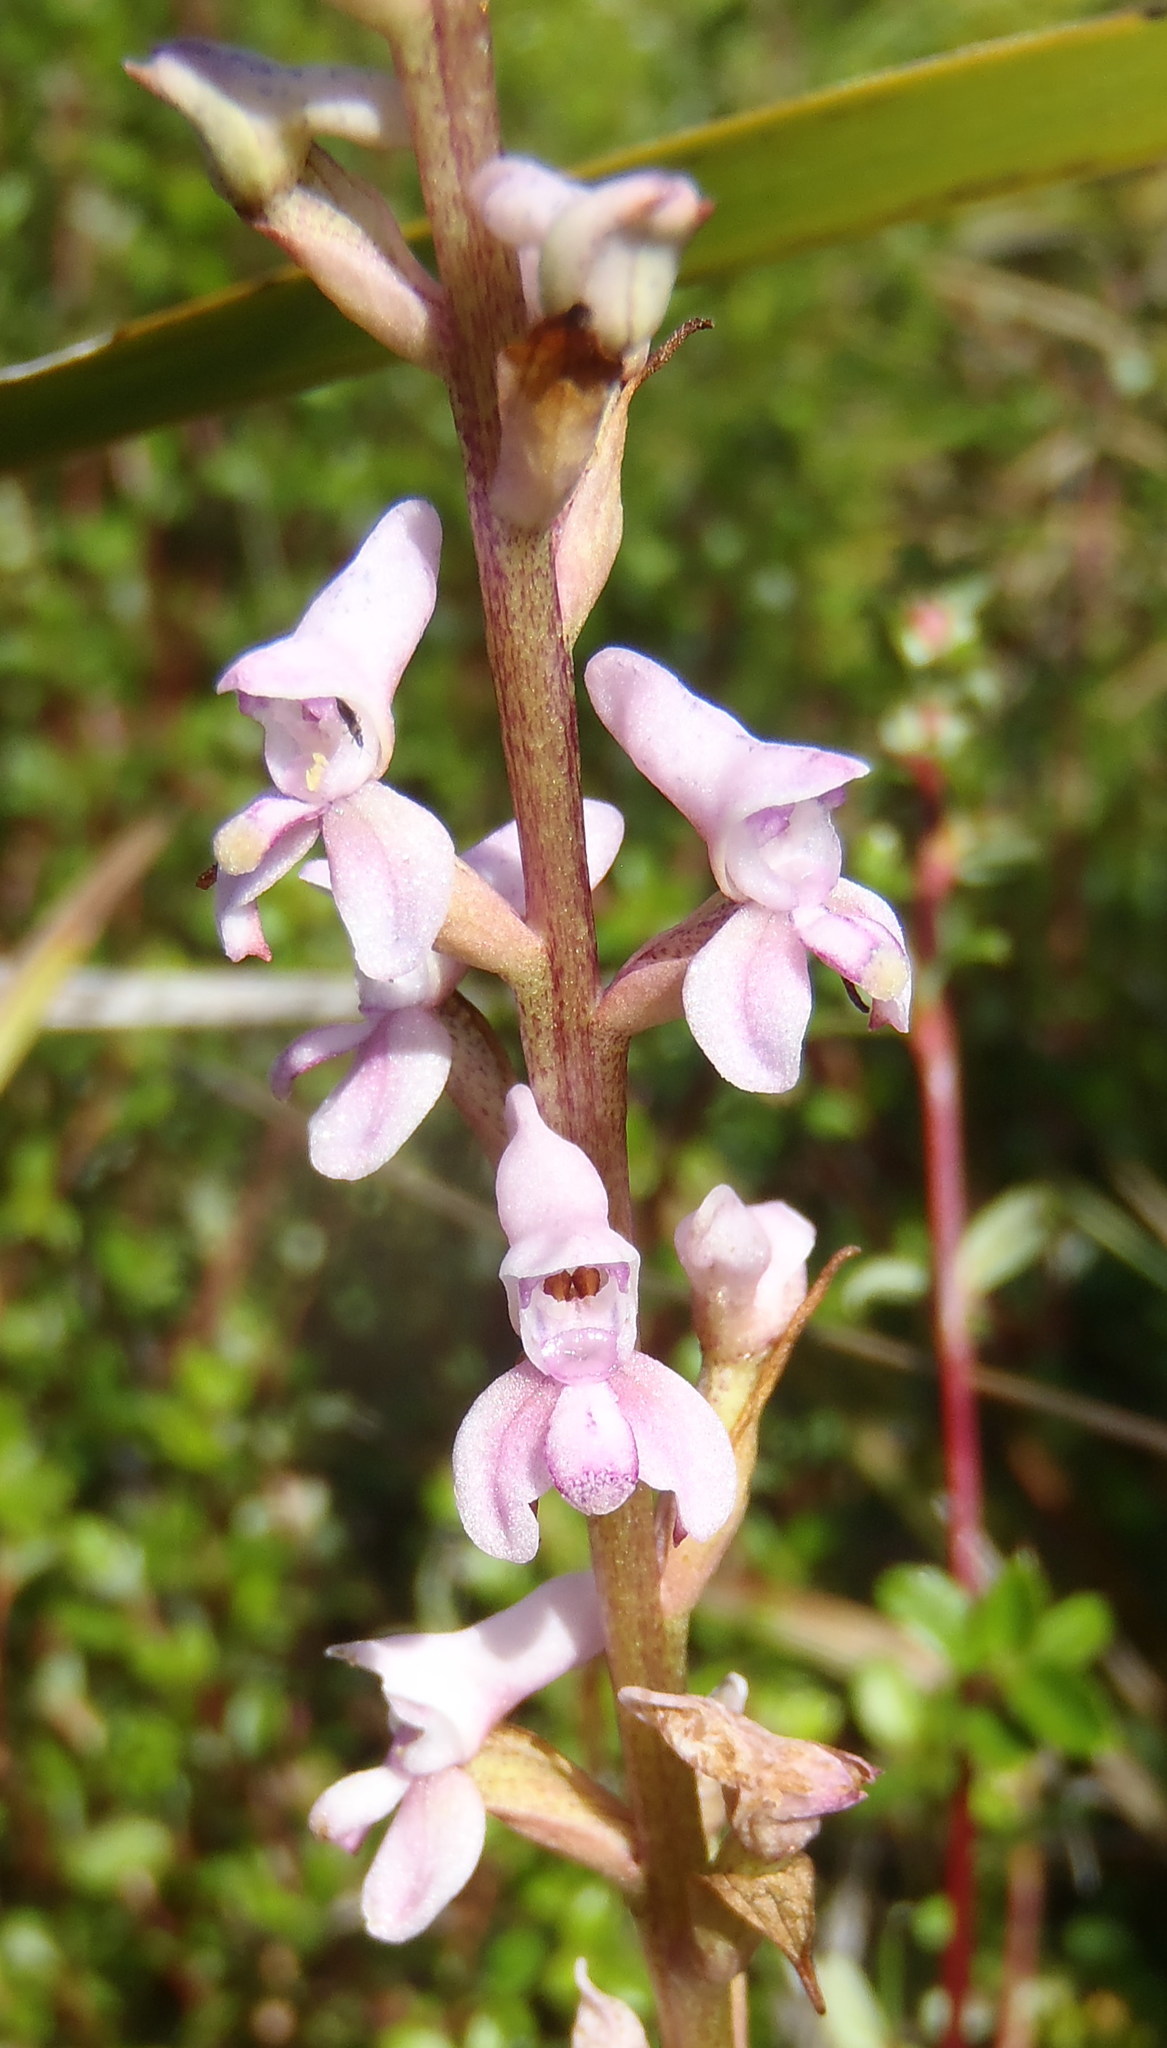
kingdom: Plantae
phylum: Tracheophyta
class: Liliopsida
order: Asparagales
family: Orchidaceae
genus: Disa
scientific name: Disa aconitoides
